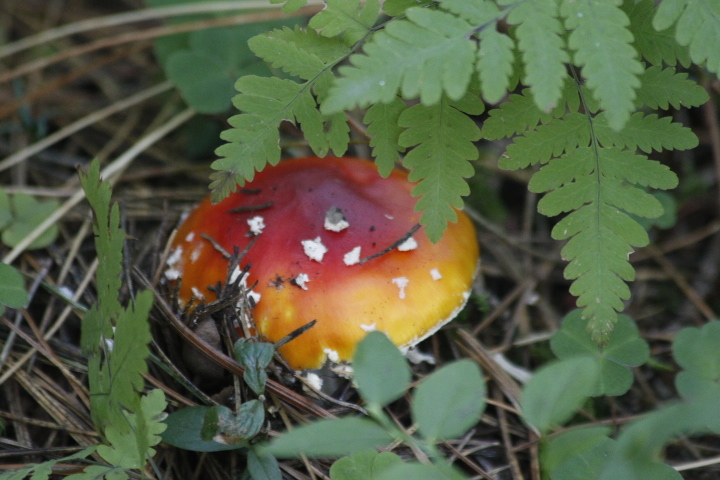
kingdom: Fungi
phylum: Basidiomycota
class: Agaricomycetes
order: Agaricales
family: Amanitaceae
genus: Amanita
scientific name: Amanita muscaria
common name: Fly agaric
